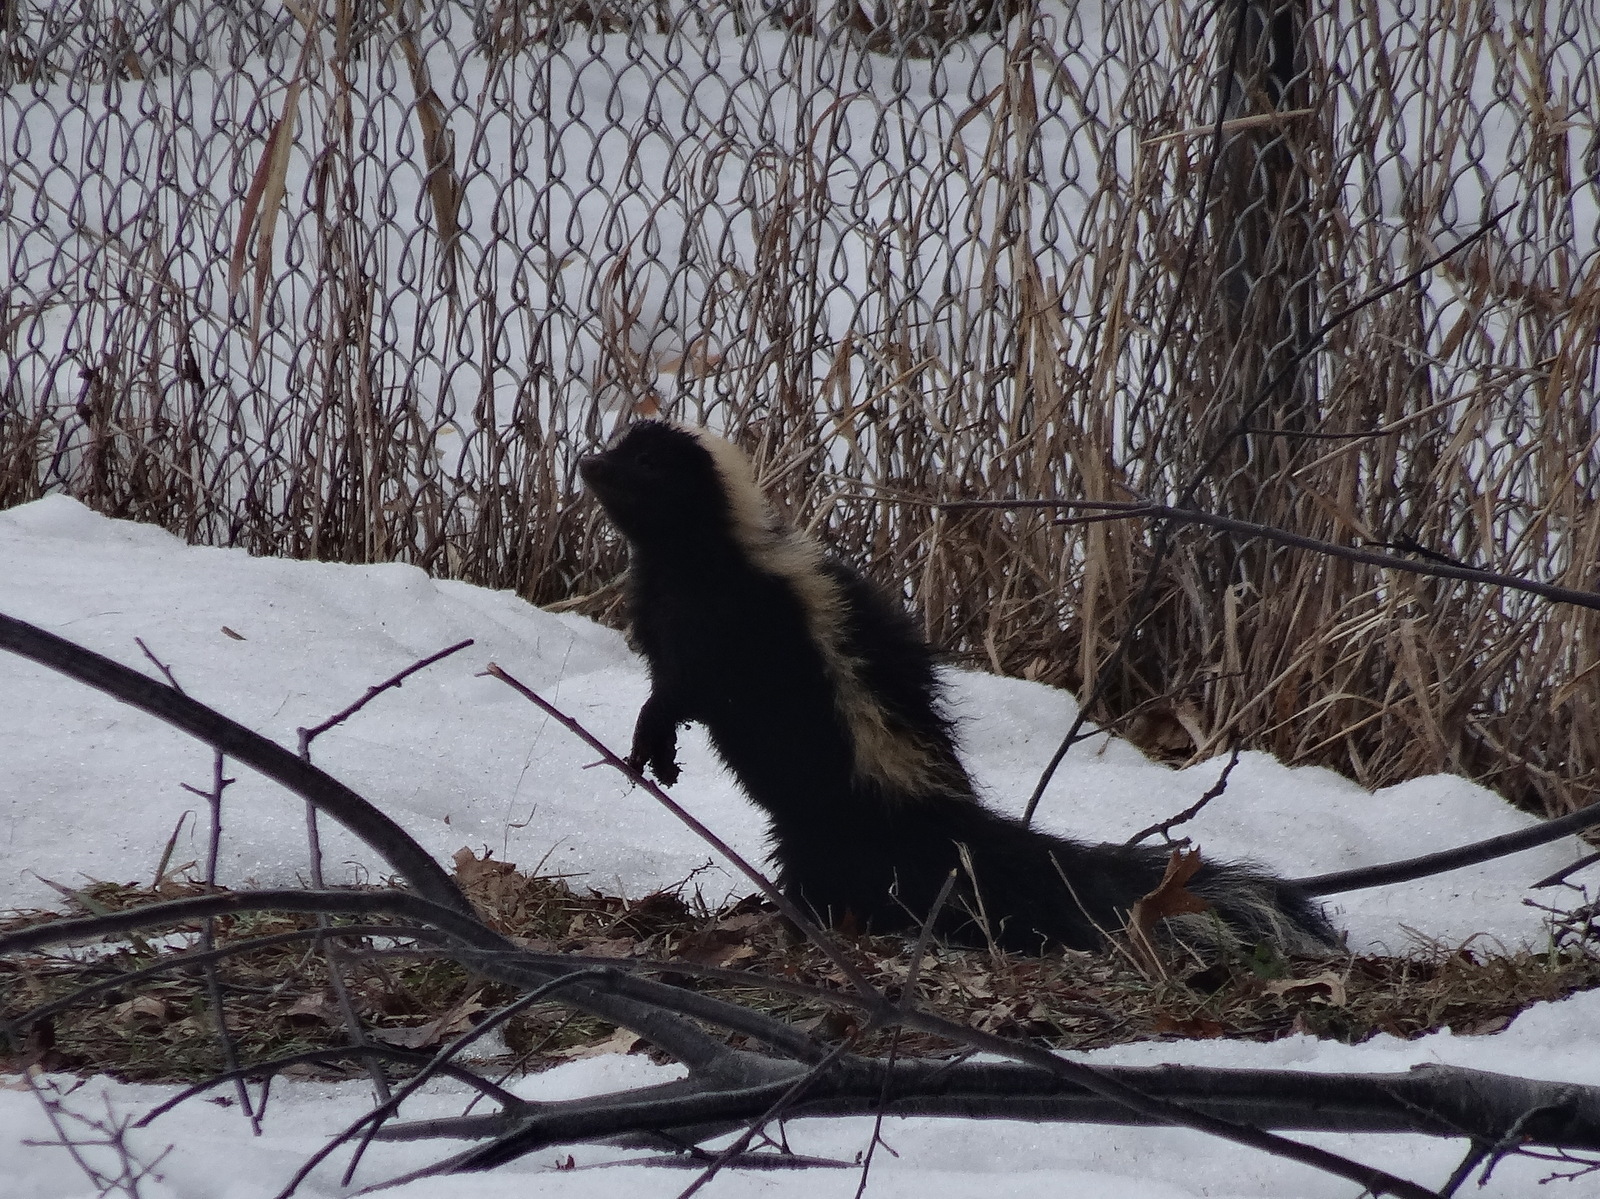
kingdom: Animalia
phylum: Chordata
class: Mammalia
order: Carnivora
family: Mephitidae
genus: Mephitis
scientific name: Mephitis mephitis
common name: Striped skunk
